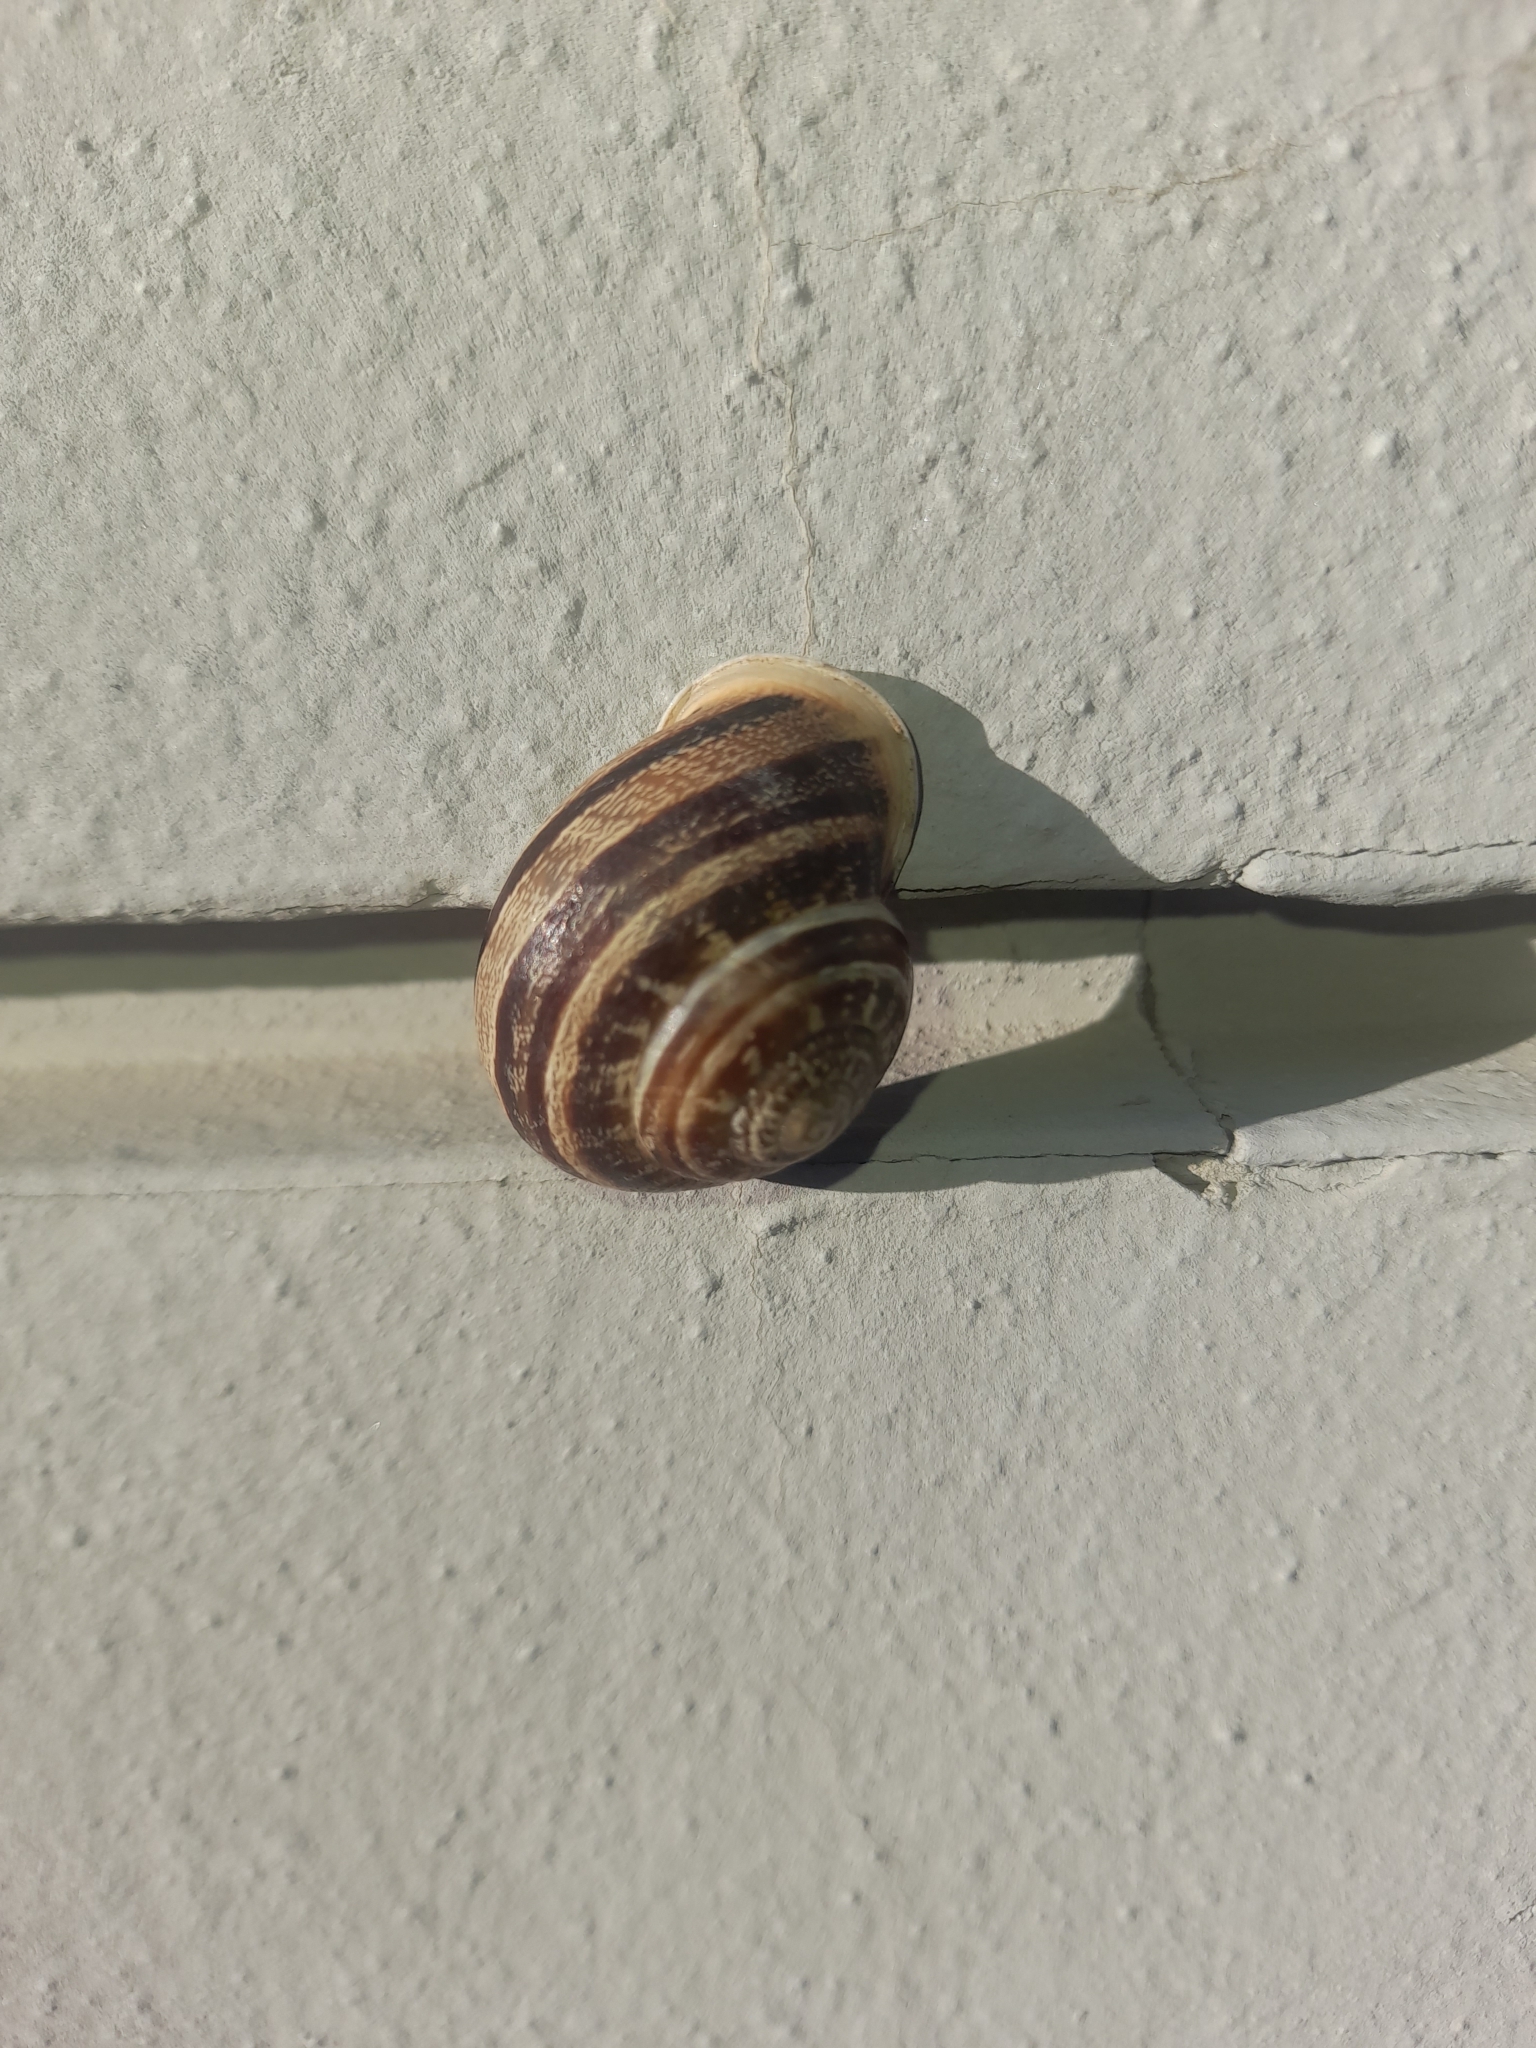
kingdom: Animalia
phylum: Mollusca
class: Gastropoda
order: Stylommatophora
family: Helicidae
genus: Eobania
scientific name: Eobania vermiculata
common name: Chocolateband snail
